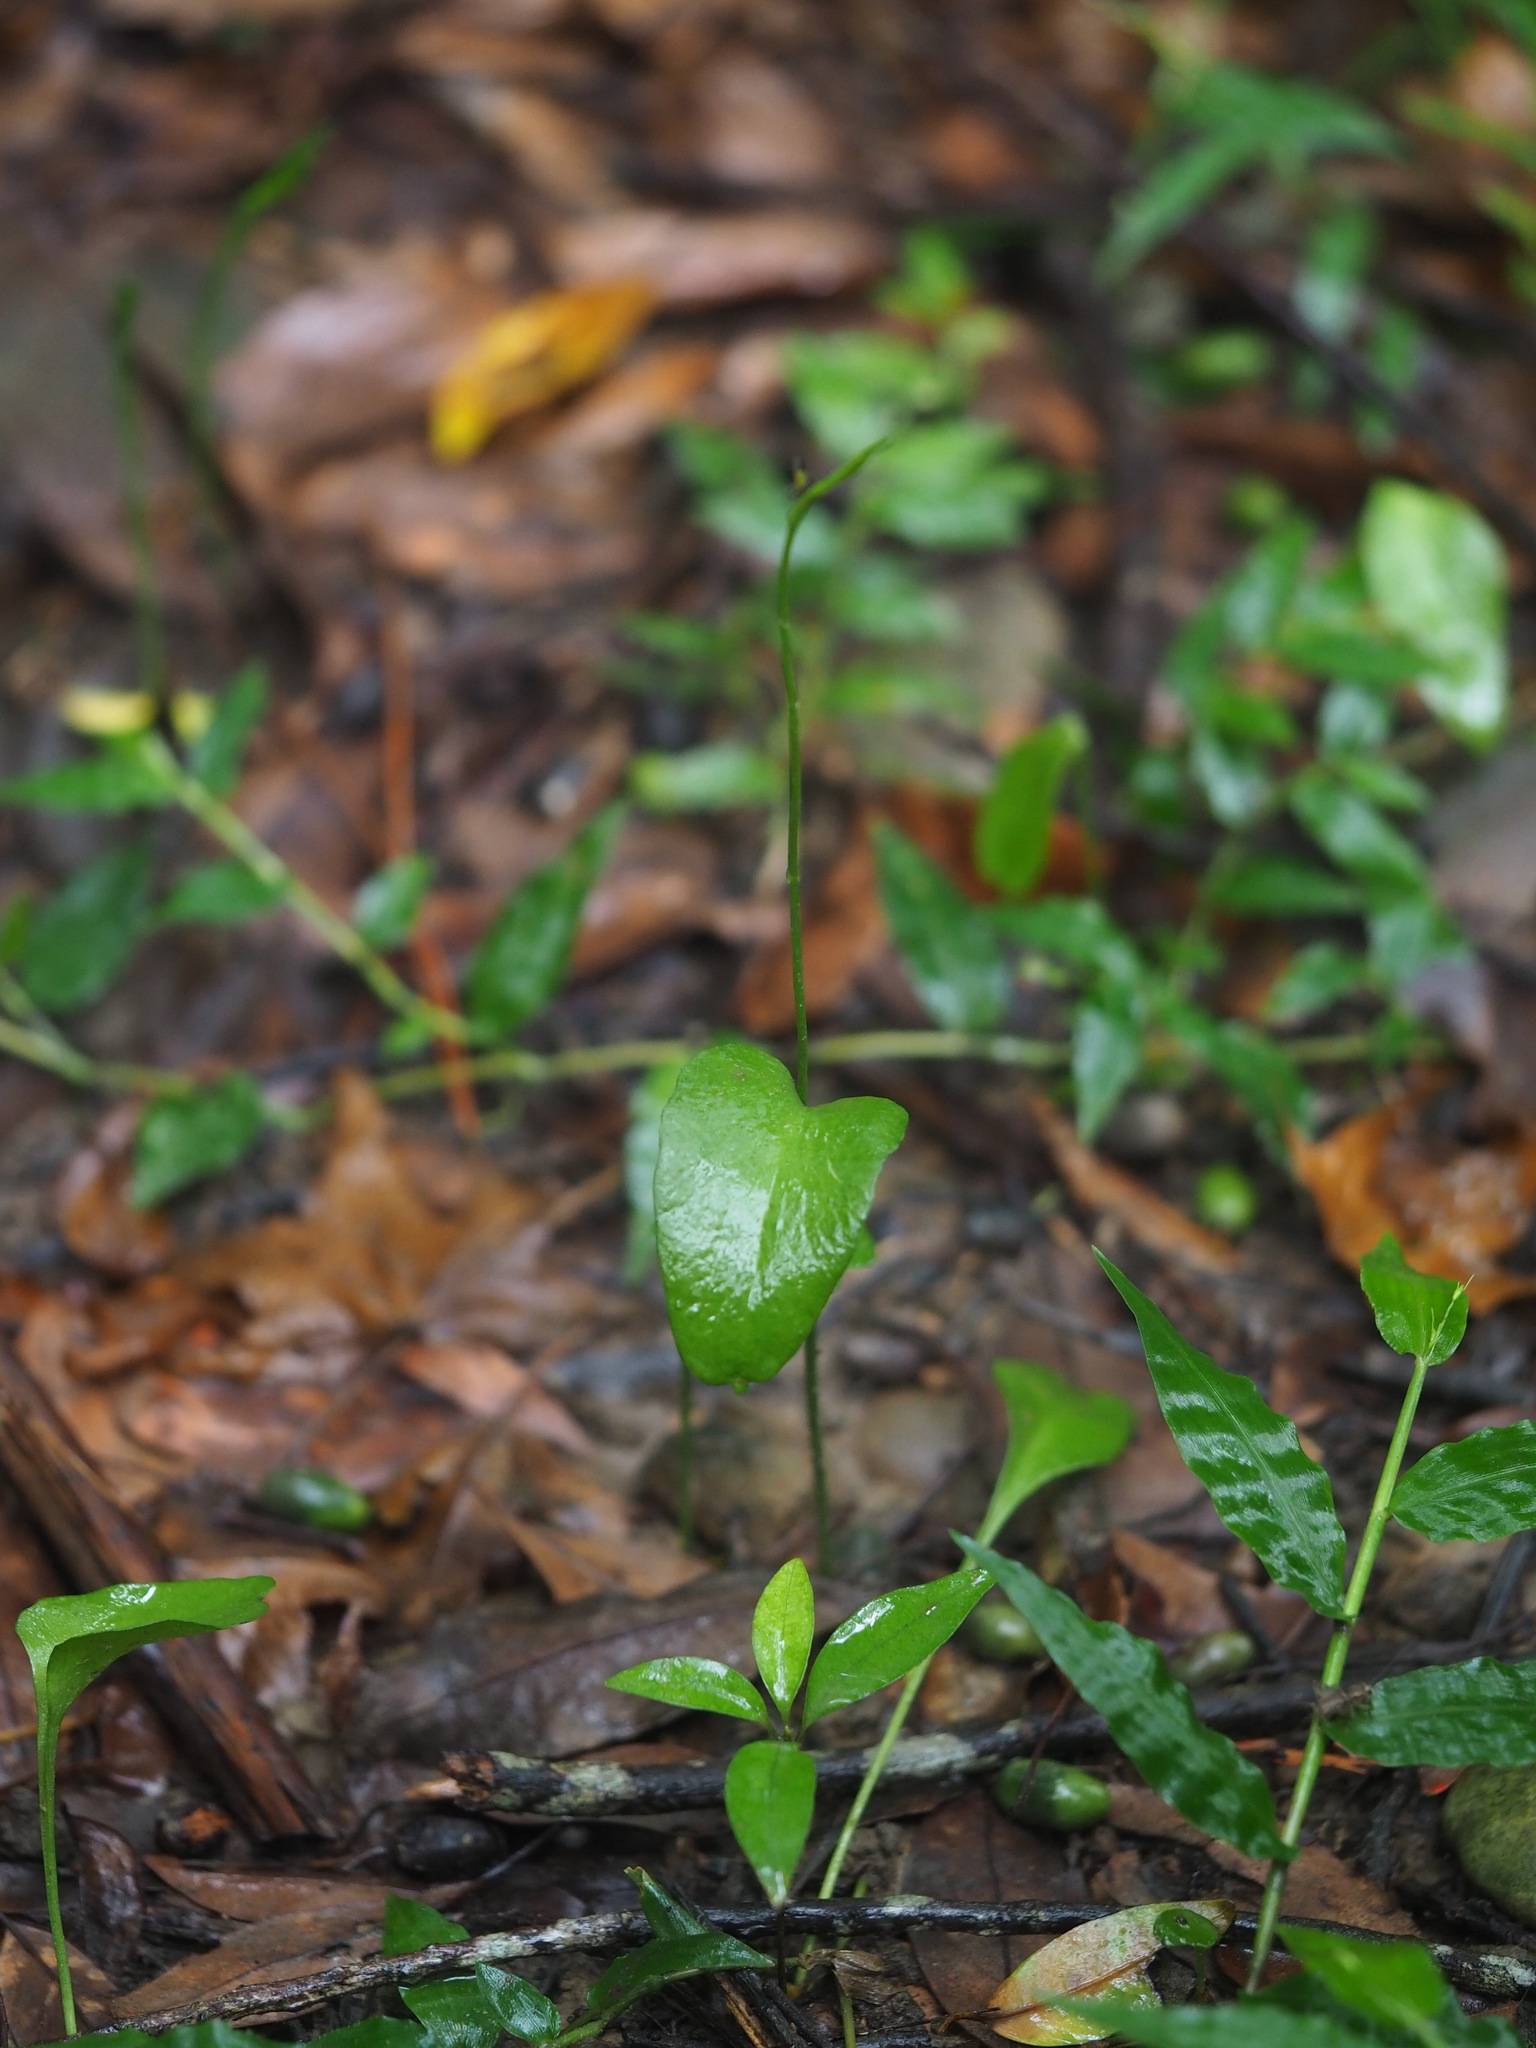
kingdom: Plantae
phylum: Tracheophyta
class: Polypodiopsida
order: Ophioglossales
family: Ophioglossaceae
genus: Ophioglossum
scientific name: Ophioglossum petiolatum
